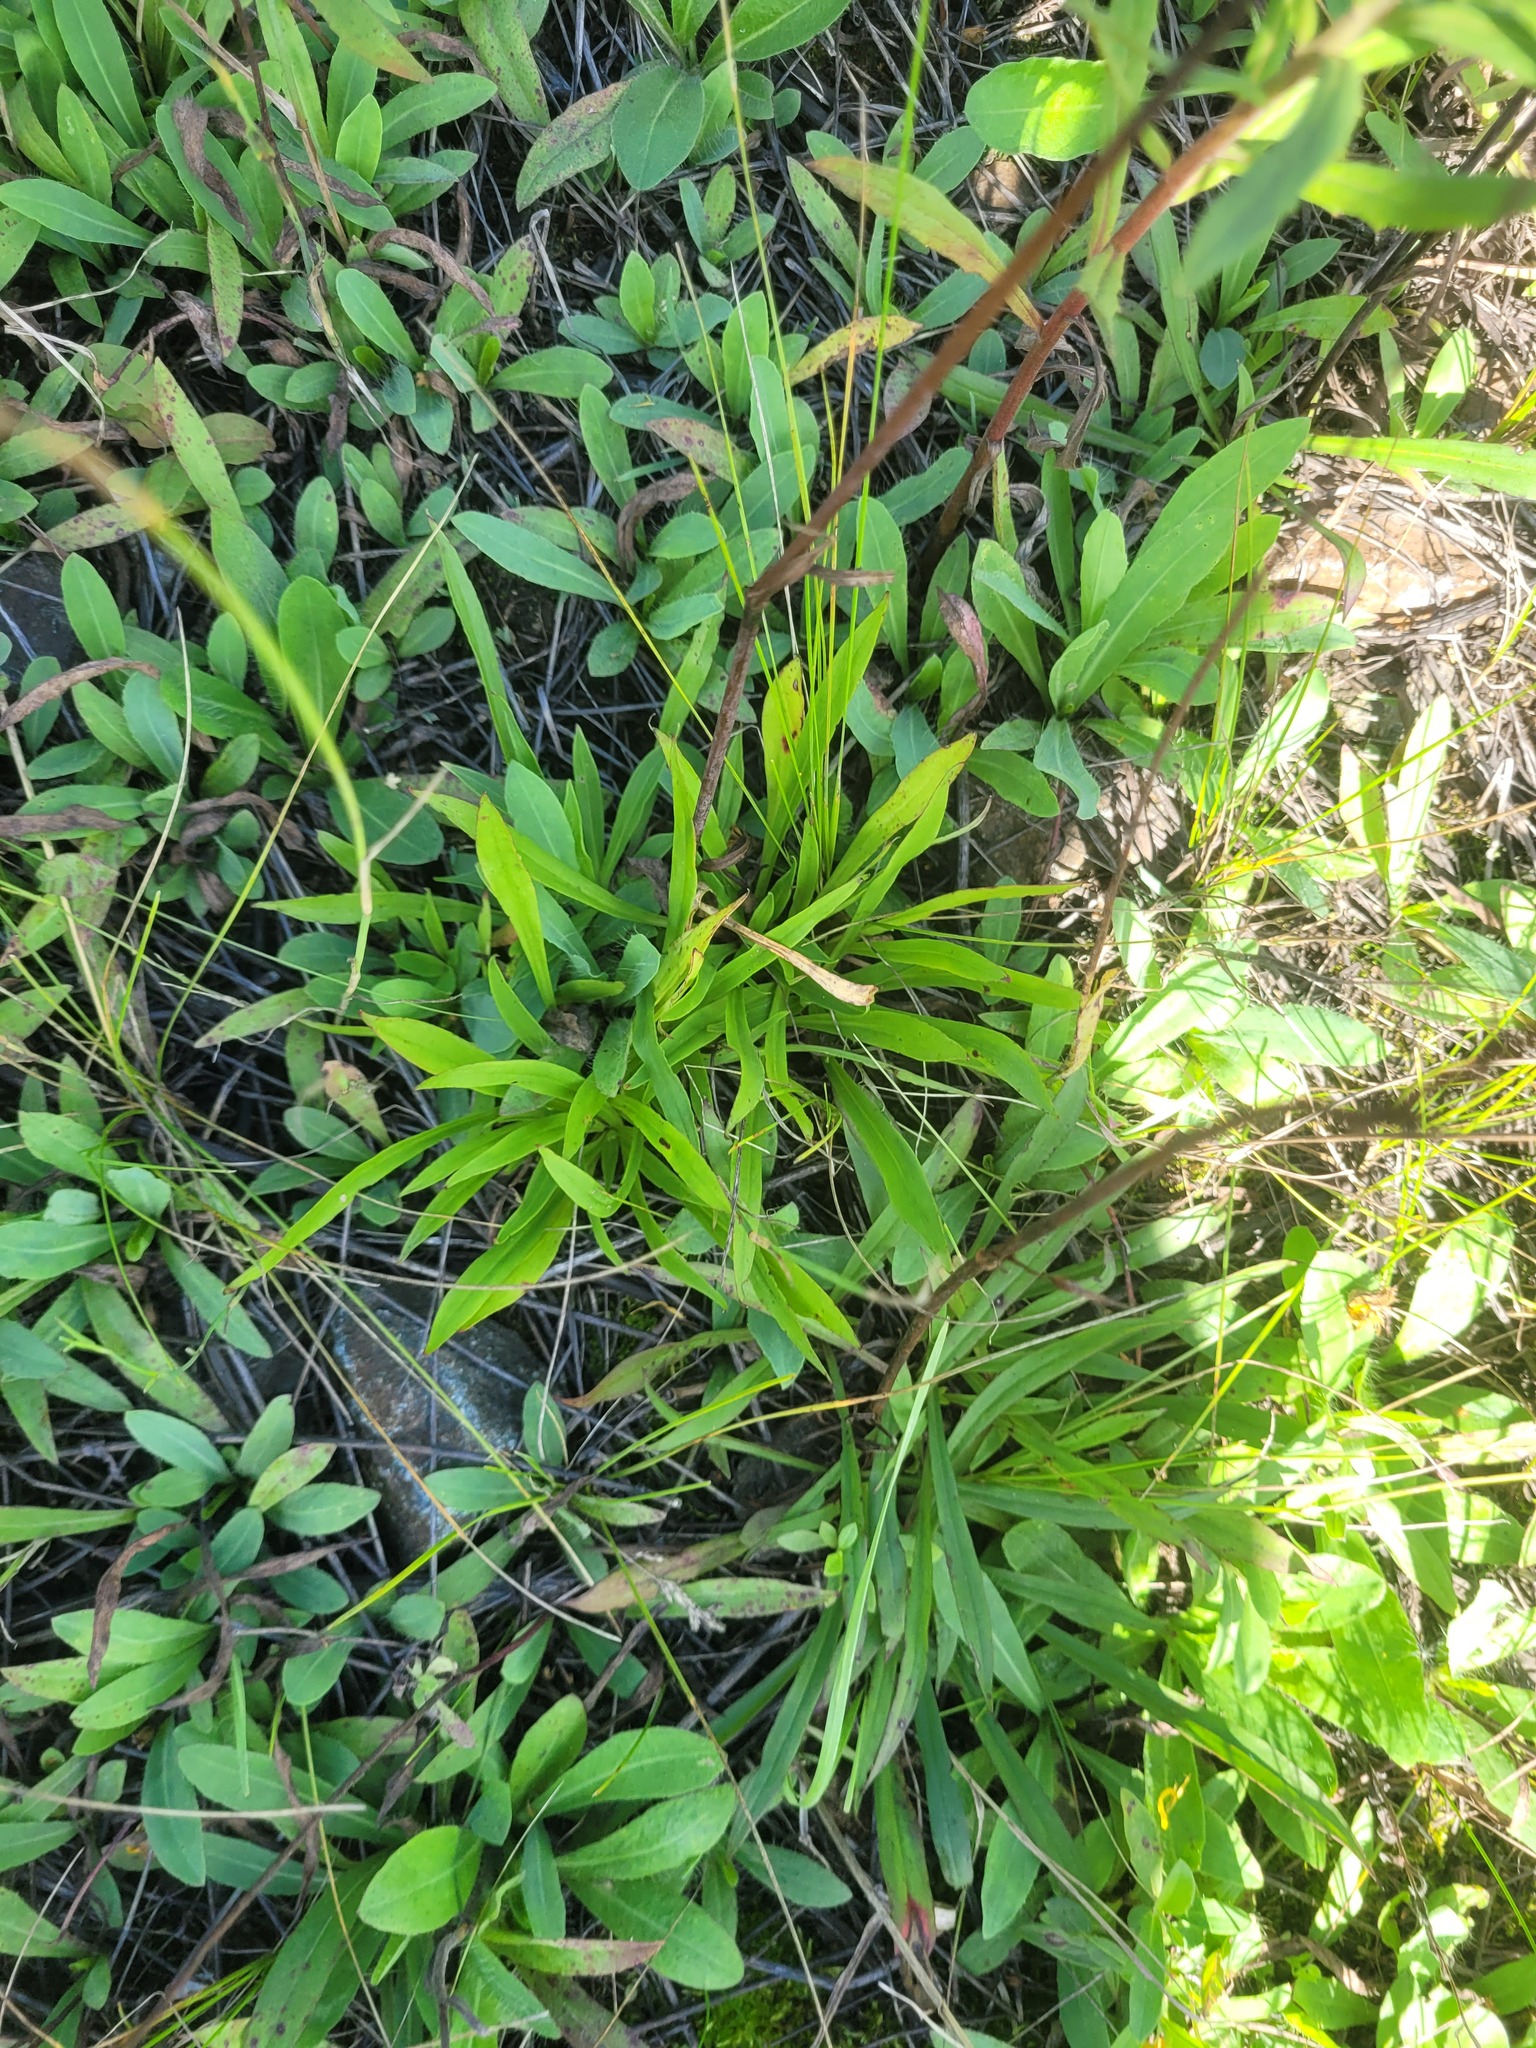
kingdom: Plantae
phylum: Tracheophyta
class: Magnoliopsida
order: Caryophyllales
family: Caryophyllaceae
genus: Viscaria
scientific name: Viscaria vulgaris
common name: Clammy campion
